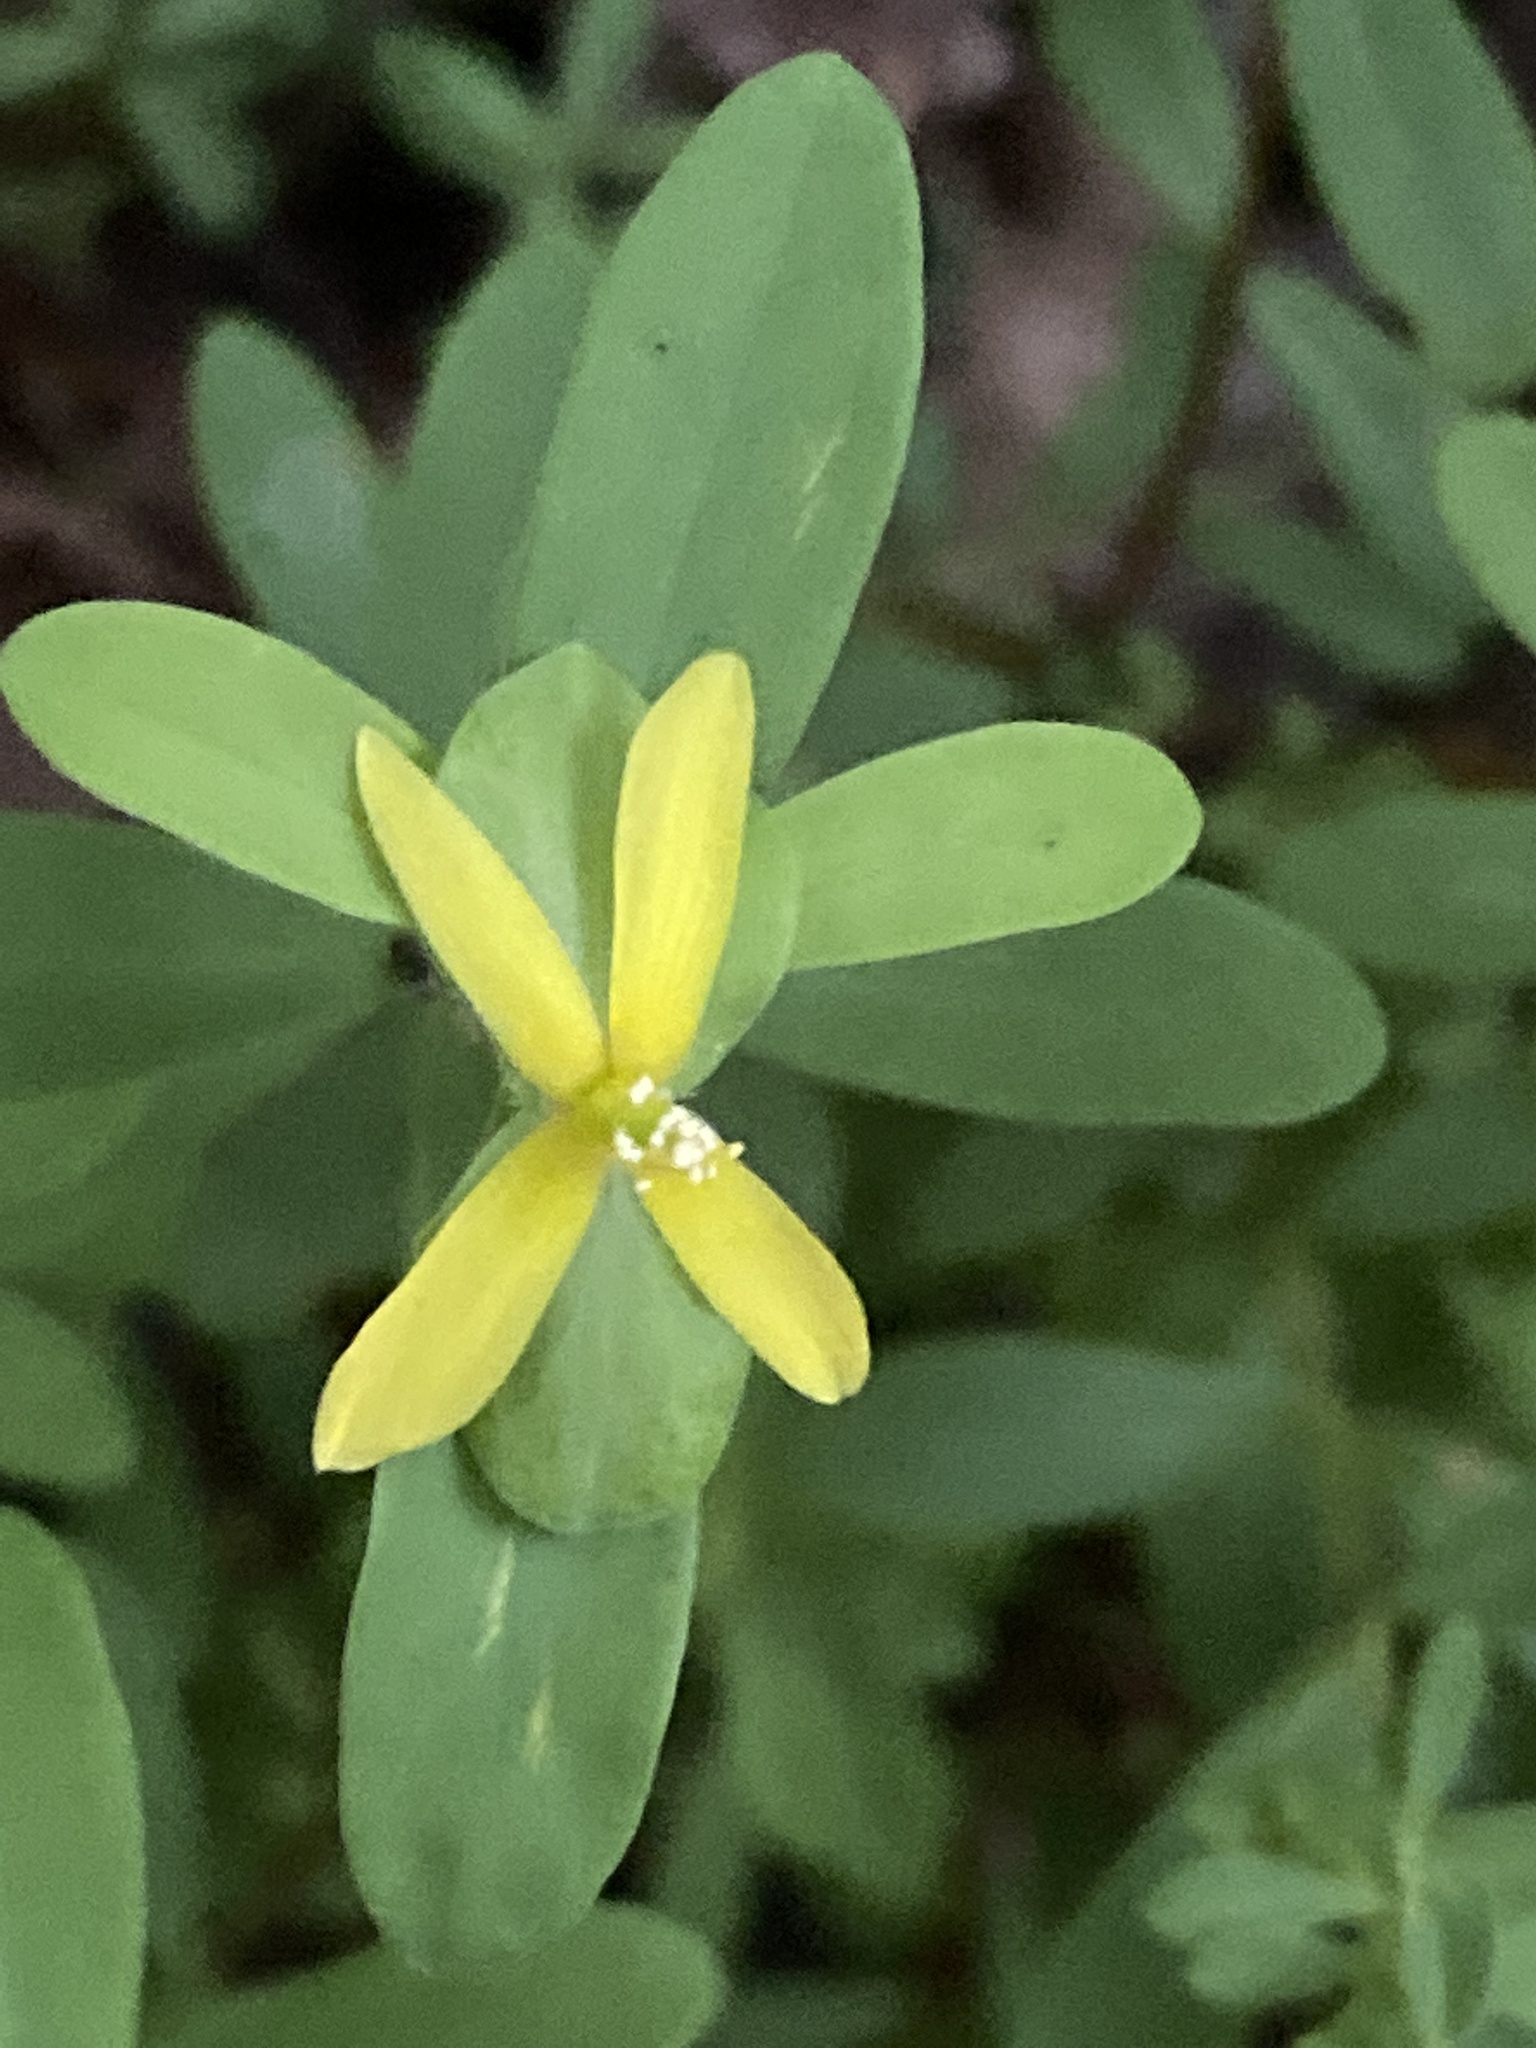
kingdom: Plantae
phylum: Tracheophyta
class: Magnoliopsida
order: Malpighiales
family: Hypericaceae
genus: Hypericum
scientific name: Hypericum hypericoides
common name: St. andrew's cross
